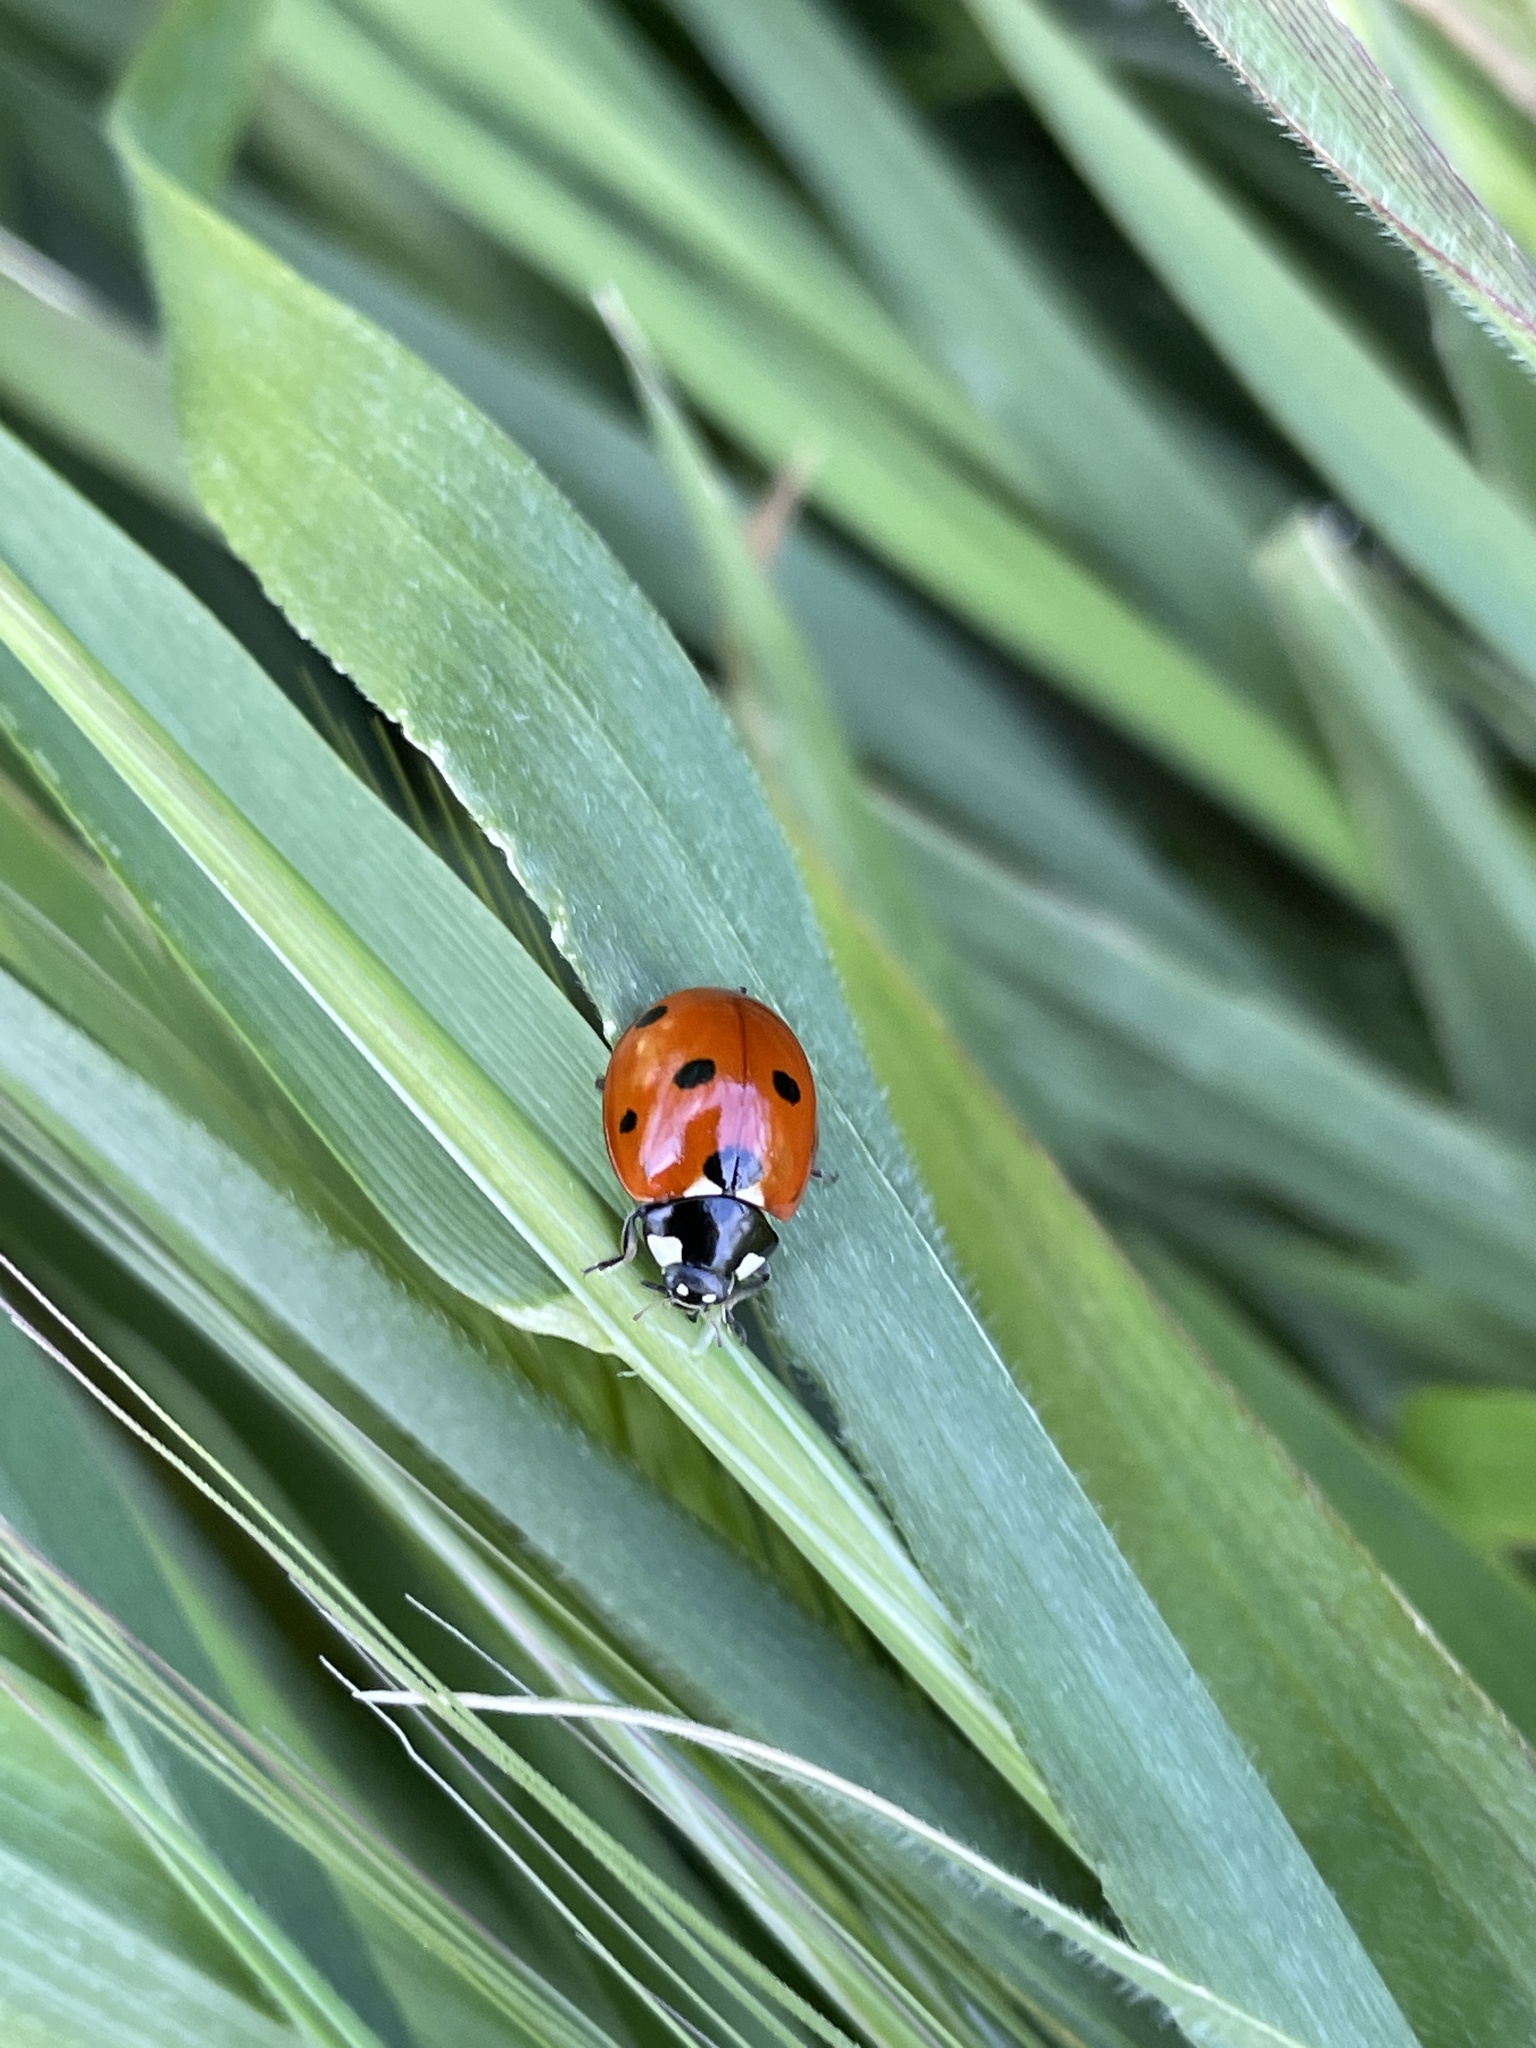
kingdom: Animalia
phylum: Arthropoda
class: Insecta
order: Coleoptera
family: Coccinellidae
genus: Coccinella
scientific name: Coccinella septempunctata
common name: Sevenspotted lady beetle
